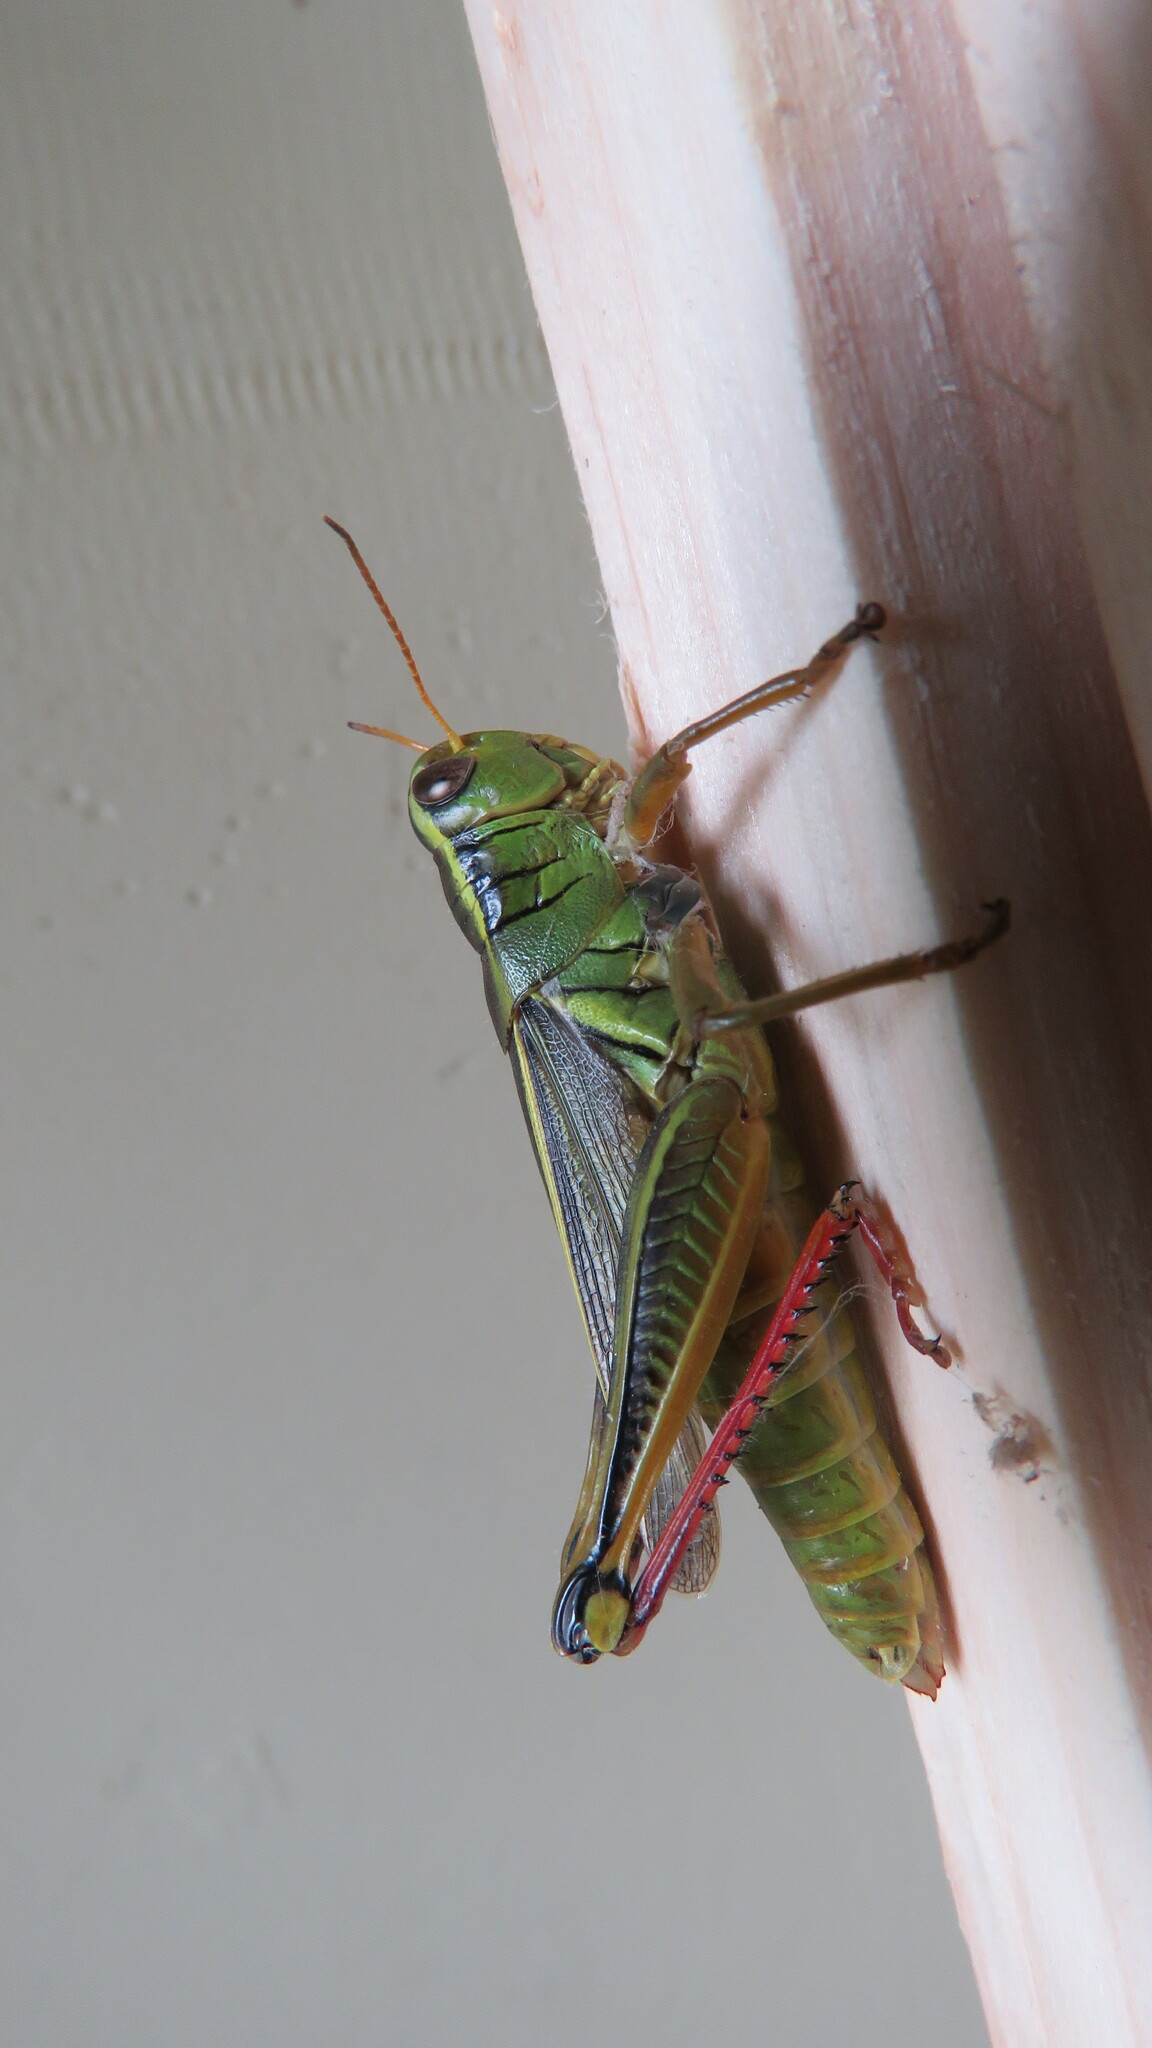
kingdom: Animalia
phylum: Arthropoda
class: Insecta
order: Orthoptera
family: Acrididae
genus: Melanoplus
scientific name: Melanoplus bivittatus
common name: Two-striped grasshopper
